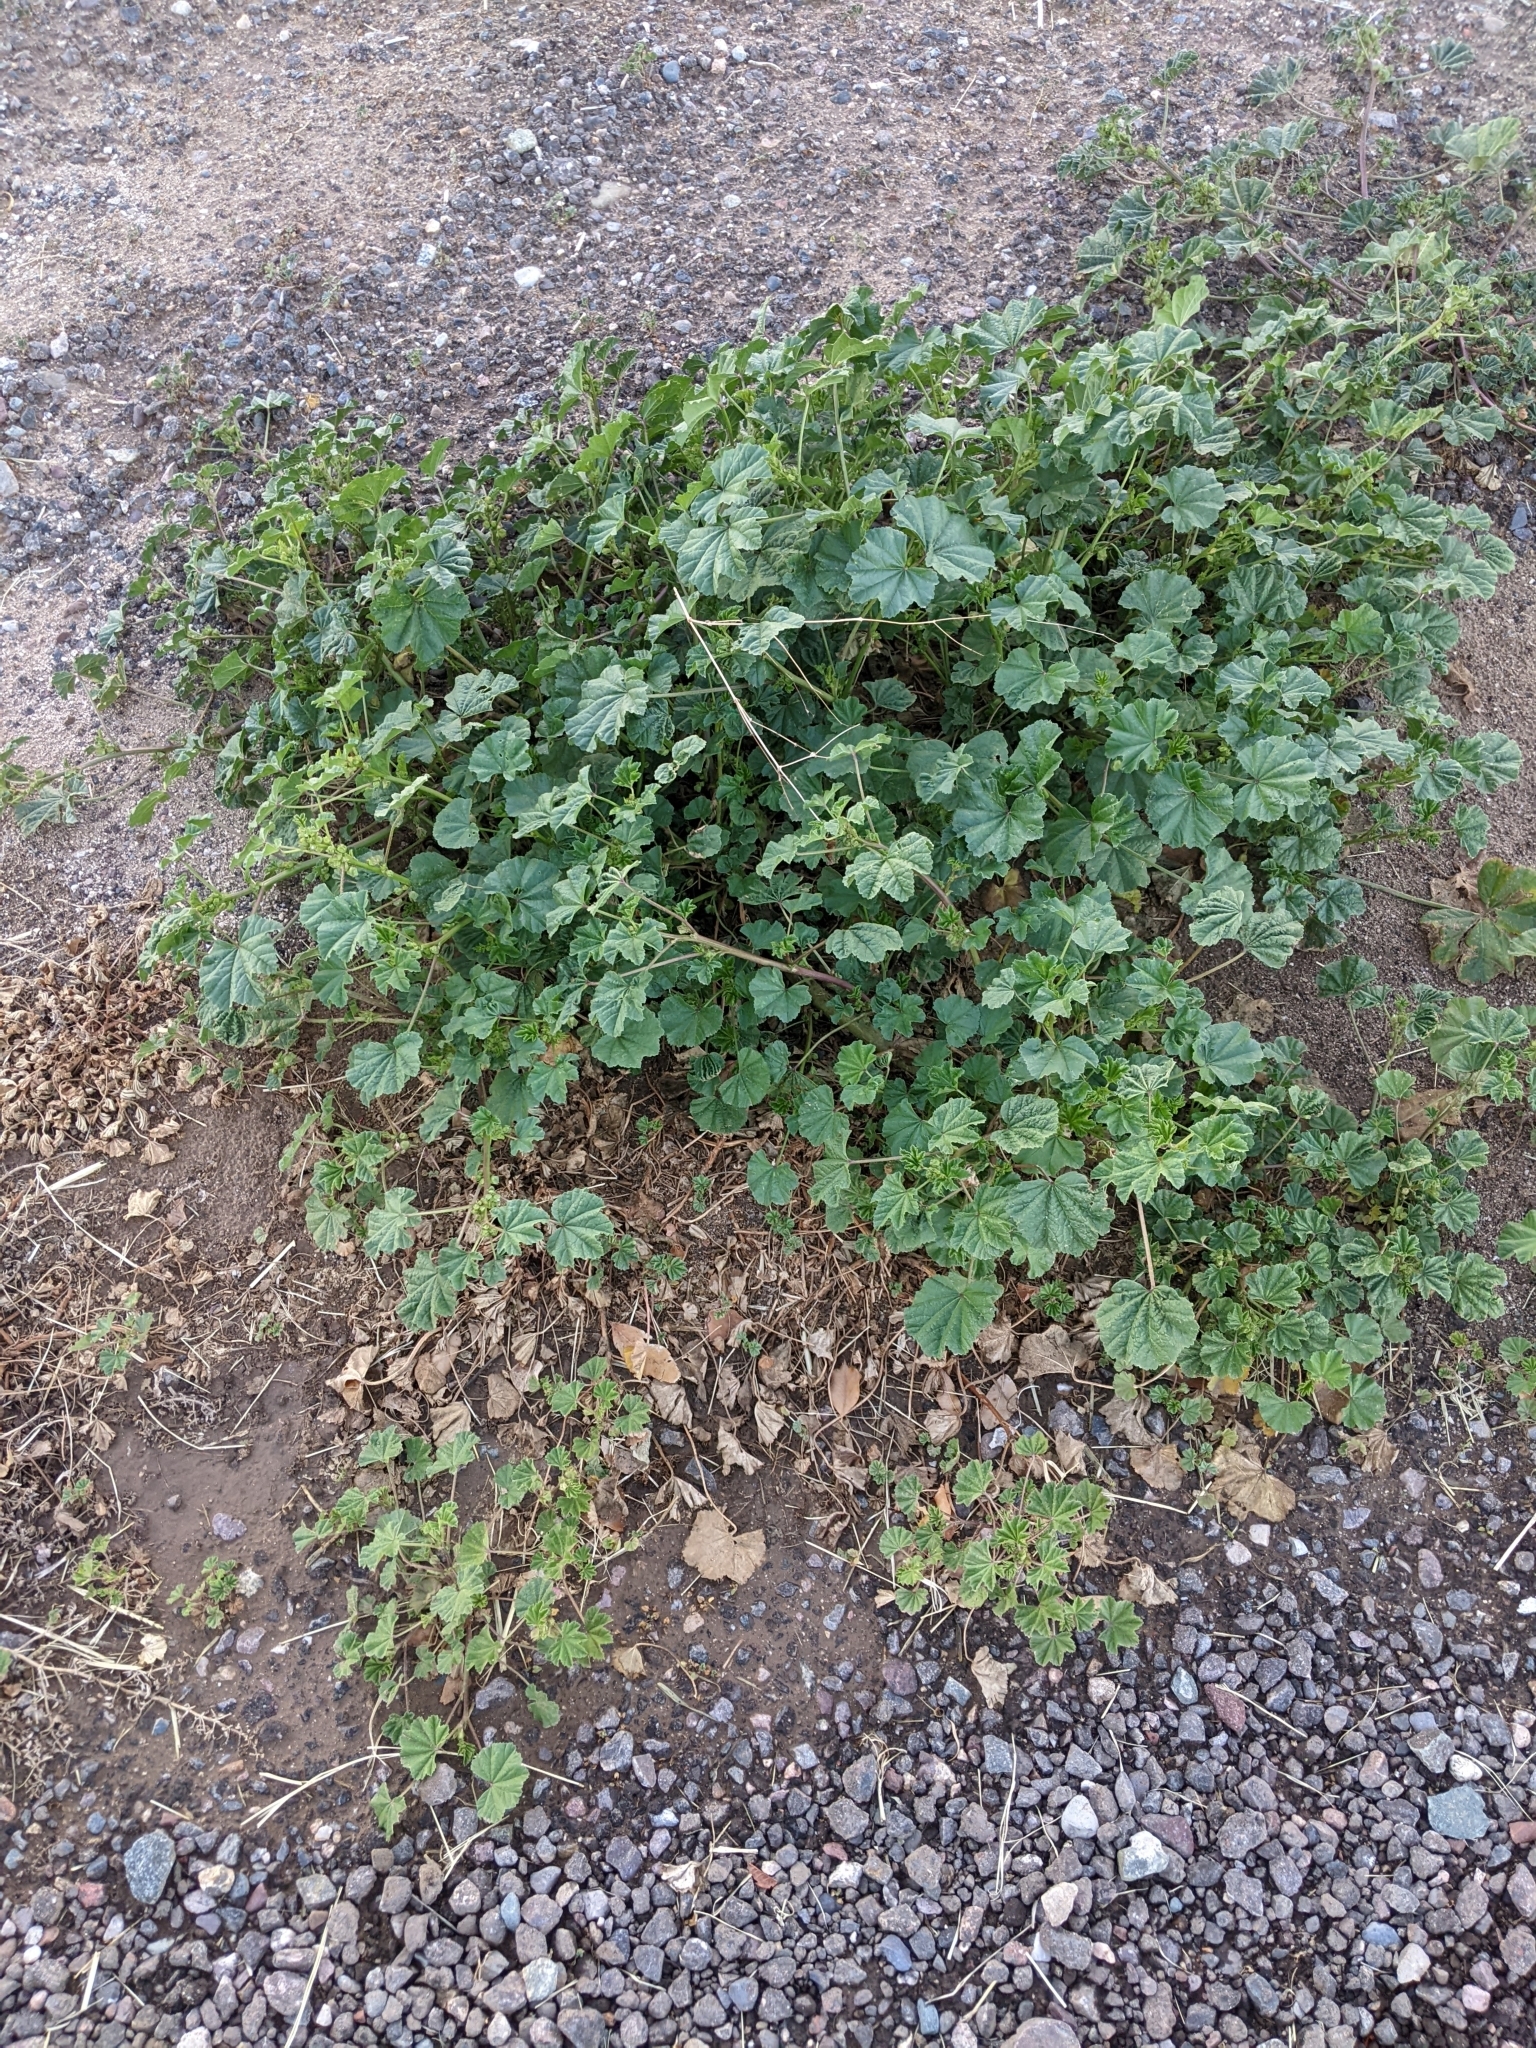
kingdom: Plantae
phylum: Tracheophyta
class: Magnoliopsida
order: Malvales
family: Malvaceae
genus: Malva
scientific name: Malva parviflora
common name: Least mallow
